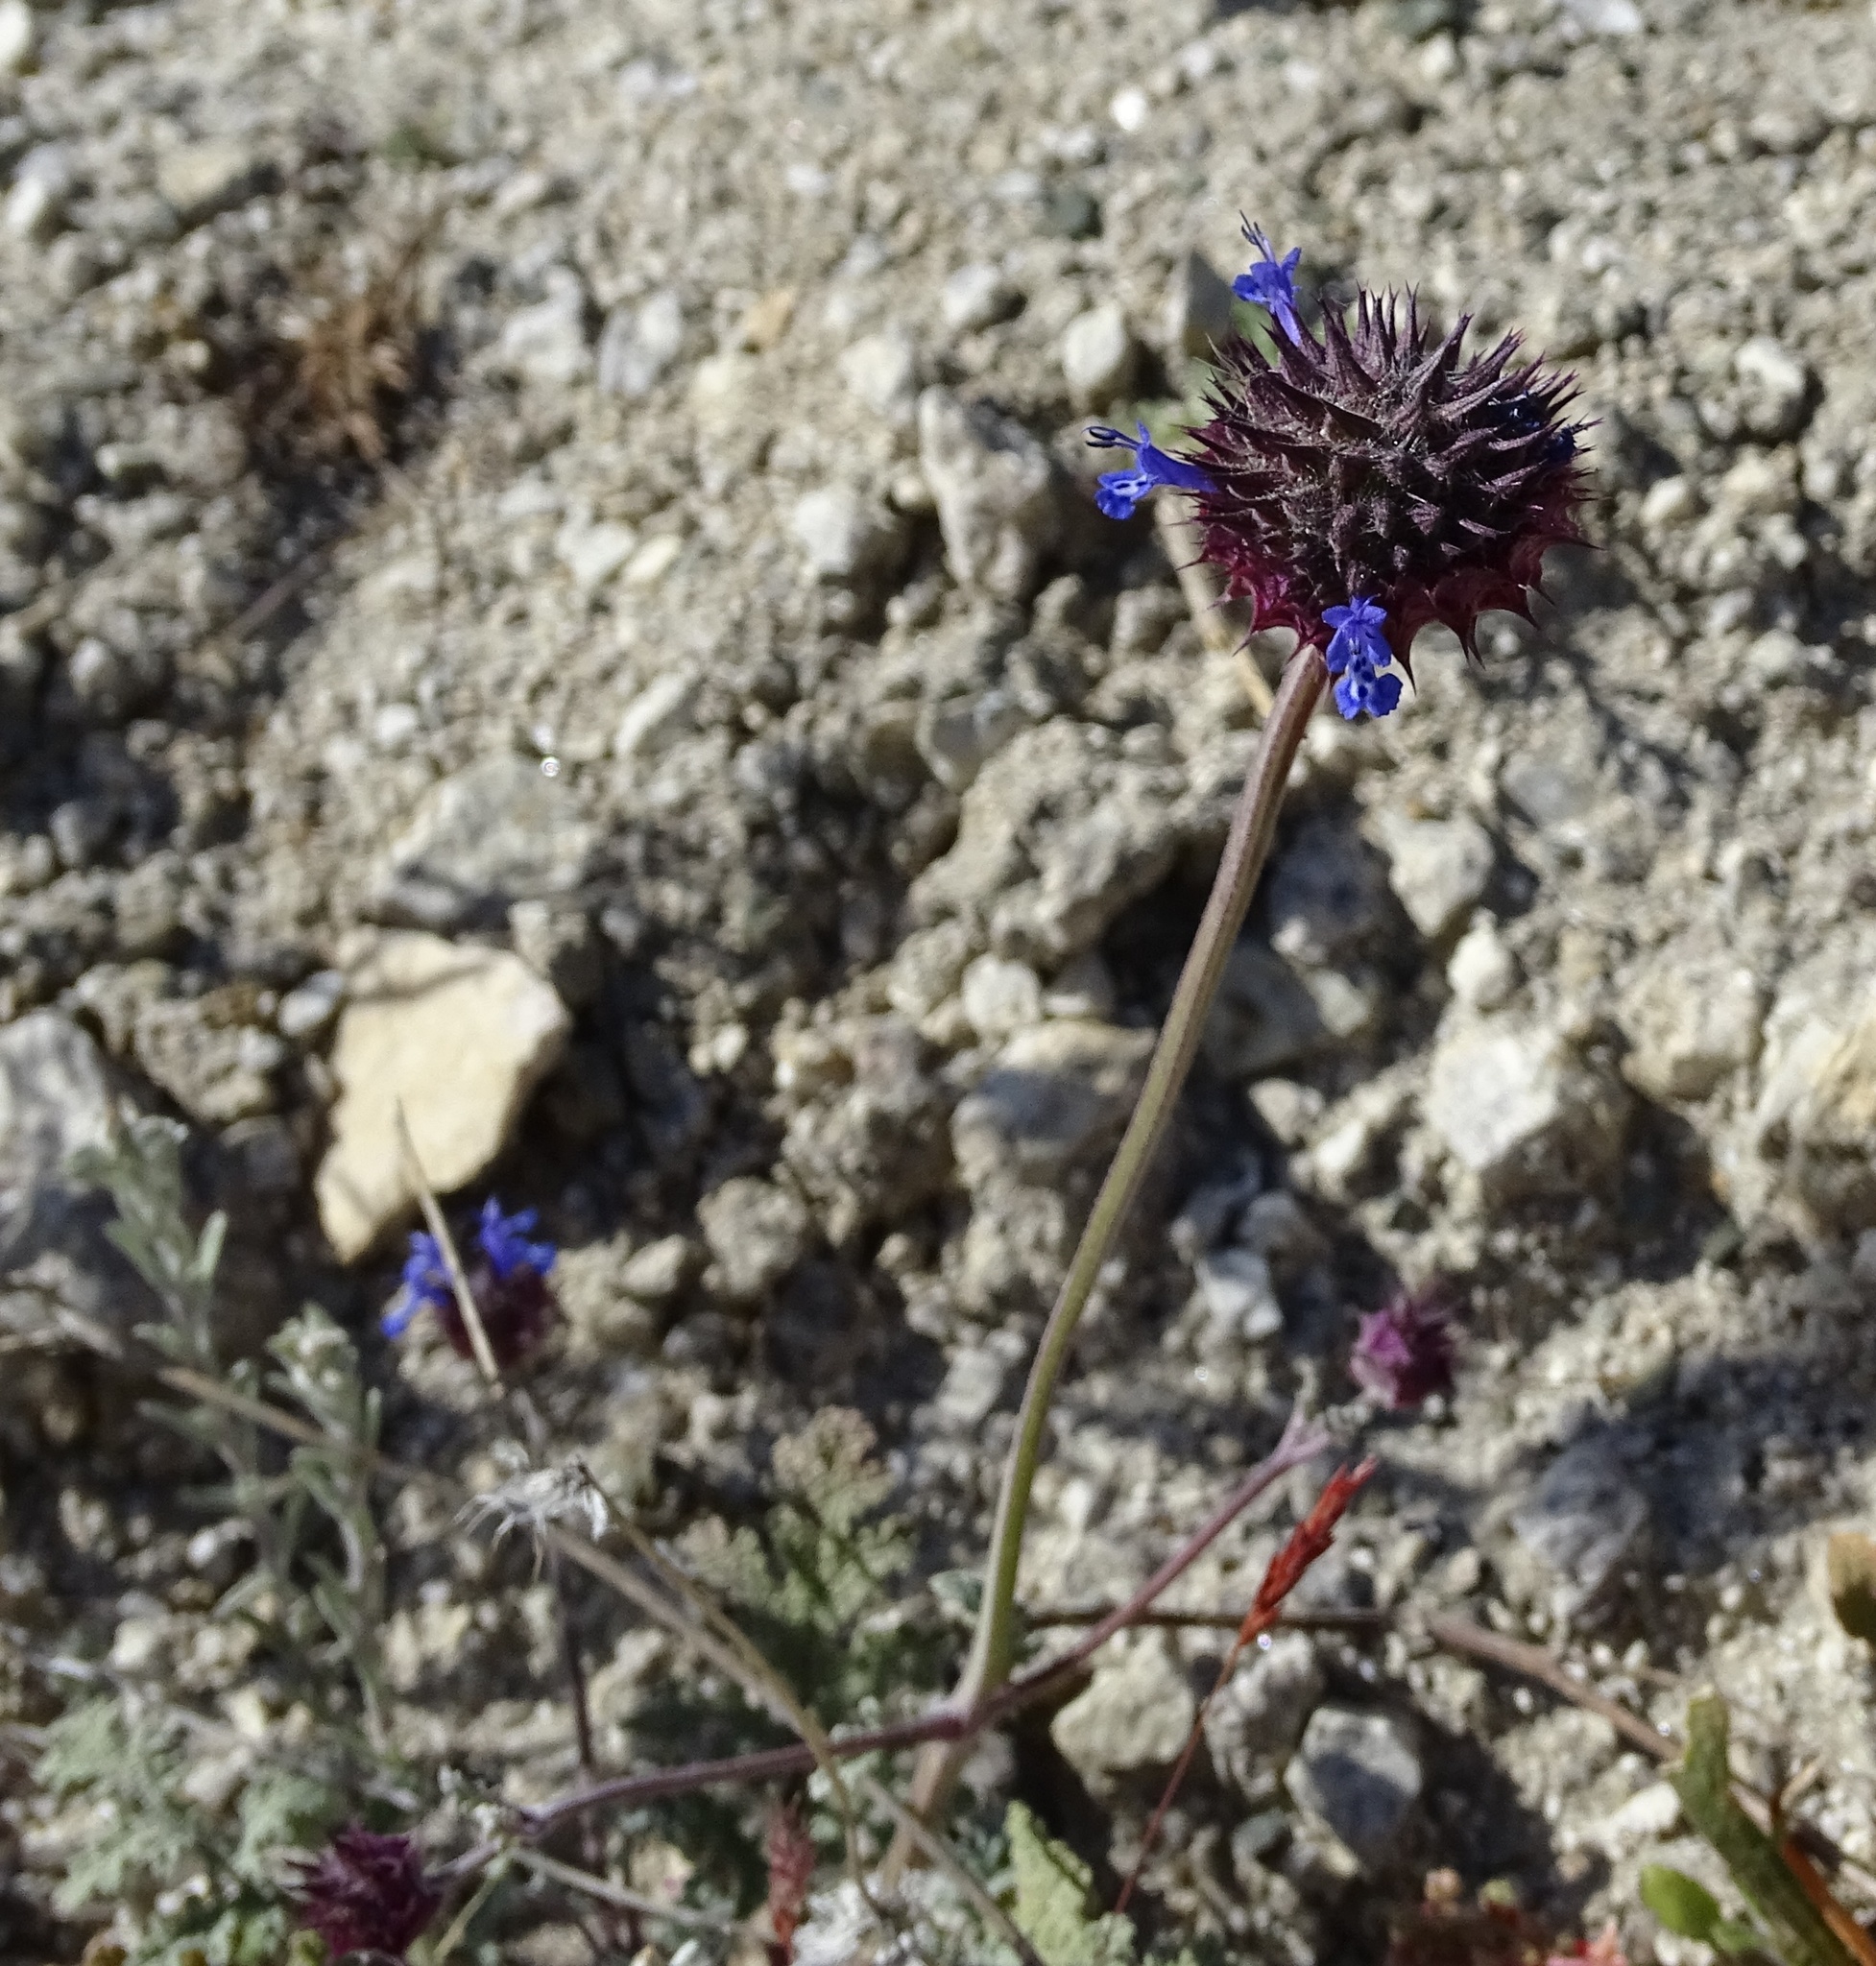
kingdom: Plantae
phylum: Tracheophyta
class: Magnoliopsida
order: Lamiales
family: Lamiaceae
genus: Salvia
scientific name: Salvia columbariae
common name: Chia
